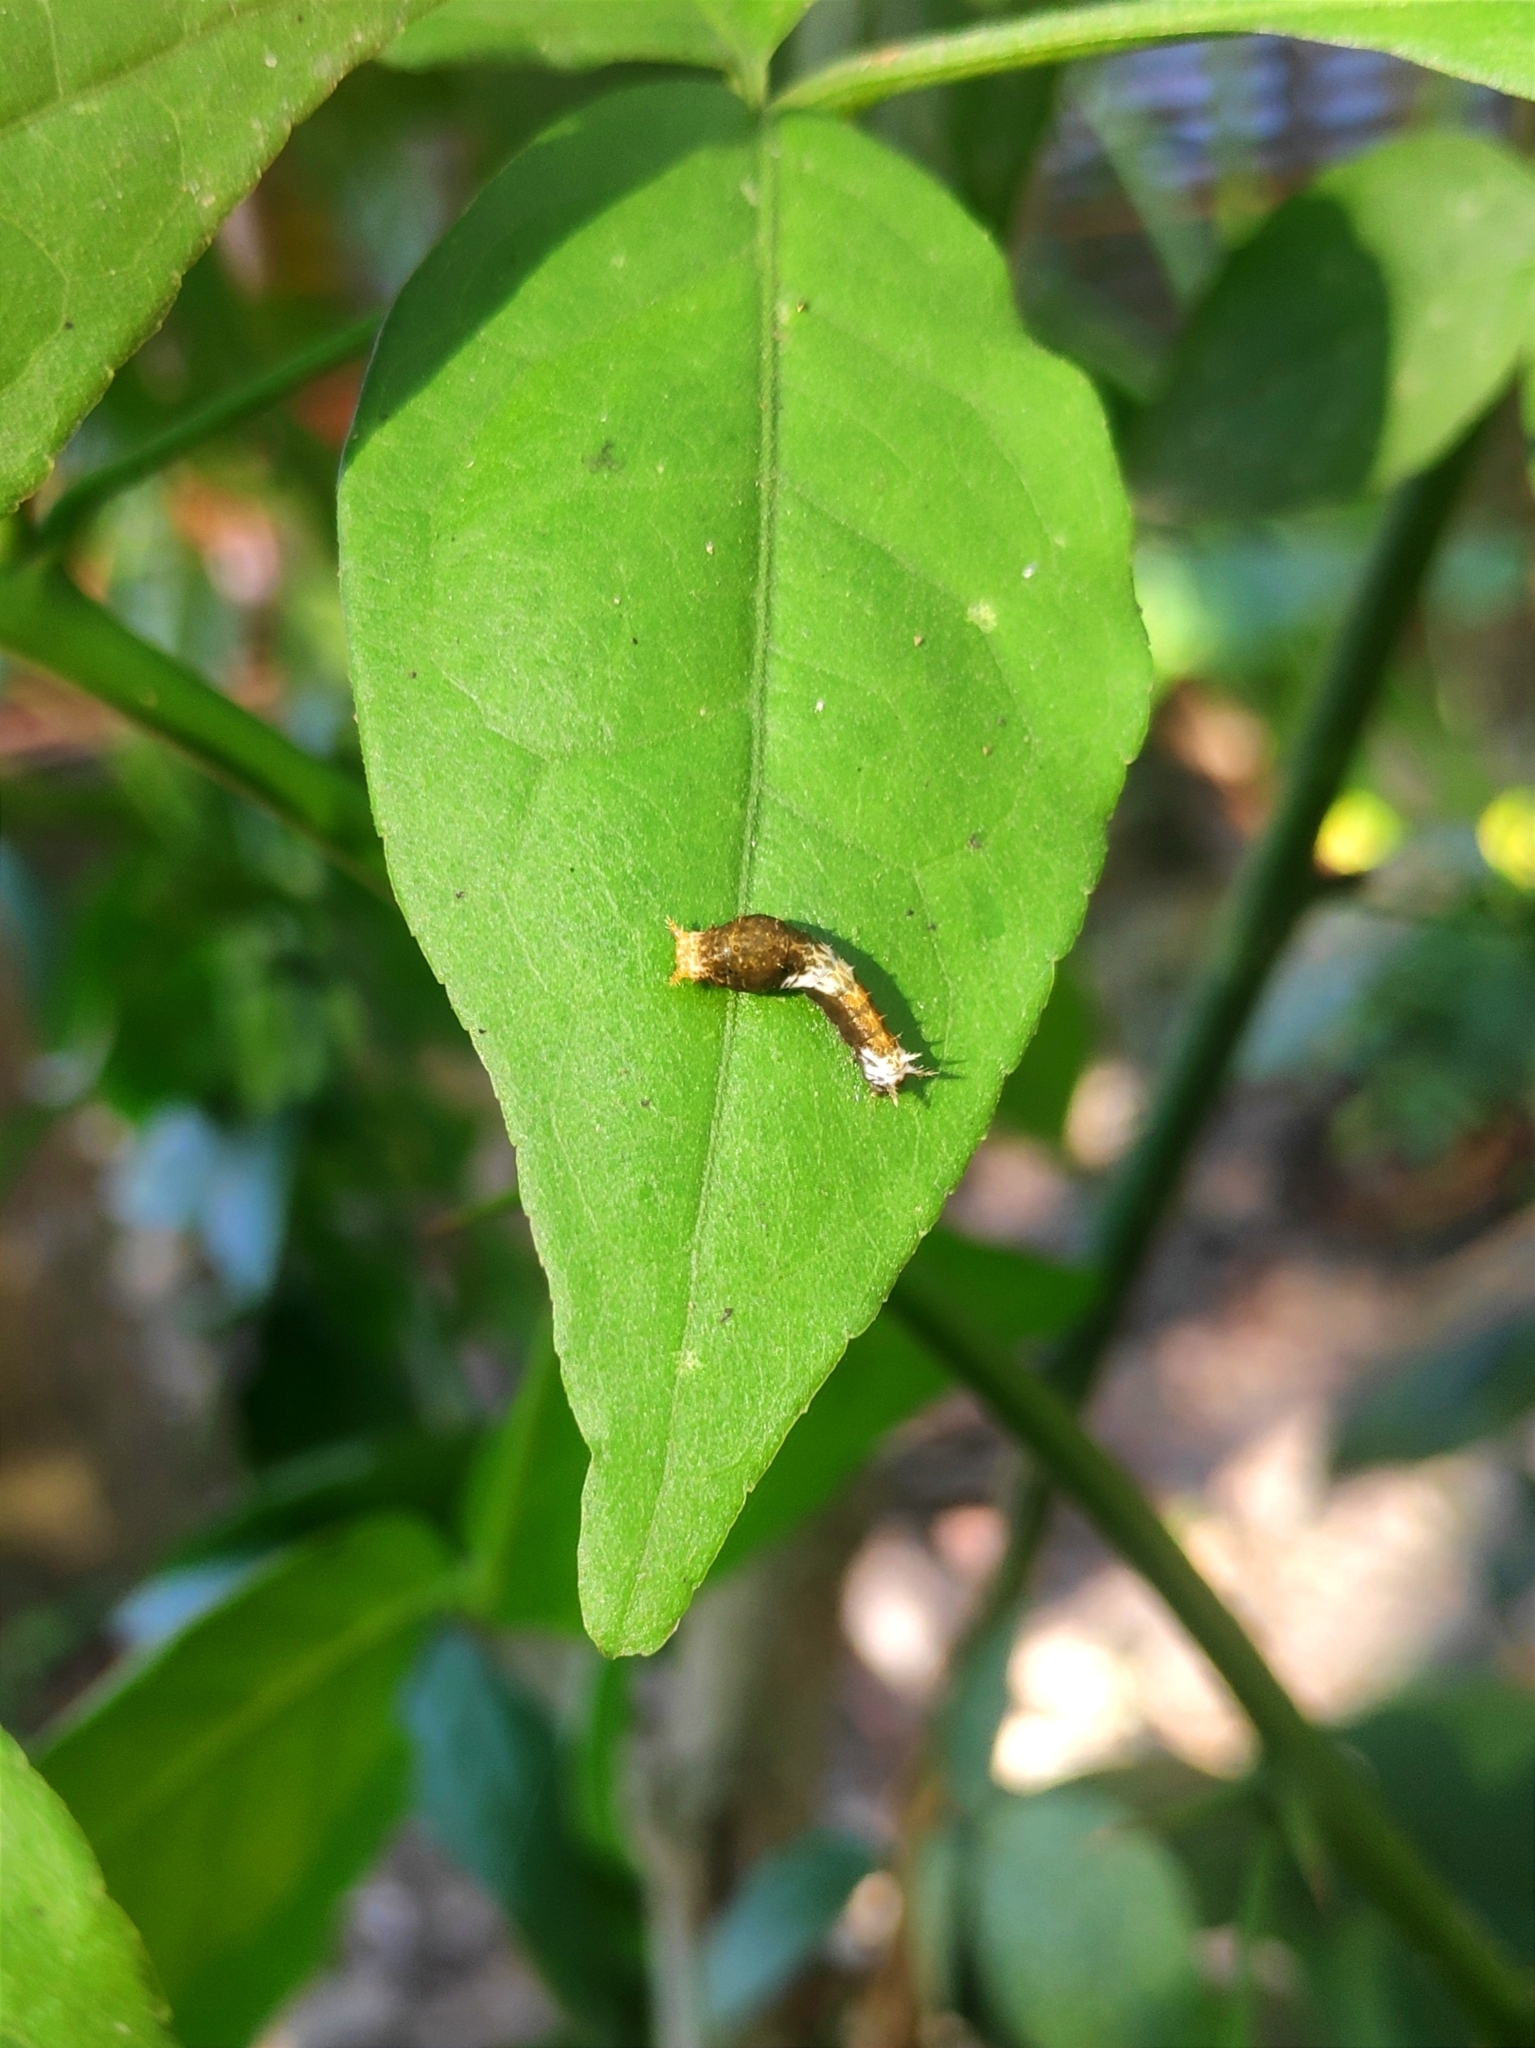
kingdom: Animalia
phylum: Arthropoda
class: Insecta
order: Lepidoptera
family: Papilionidae
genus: Papilio
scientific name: Papilio polytes
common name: Common mormon
